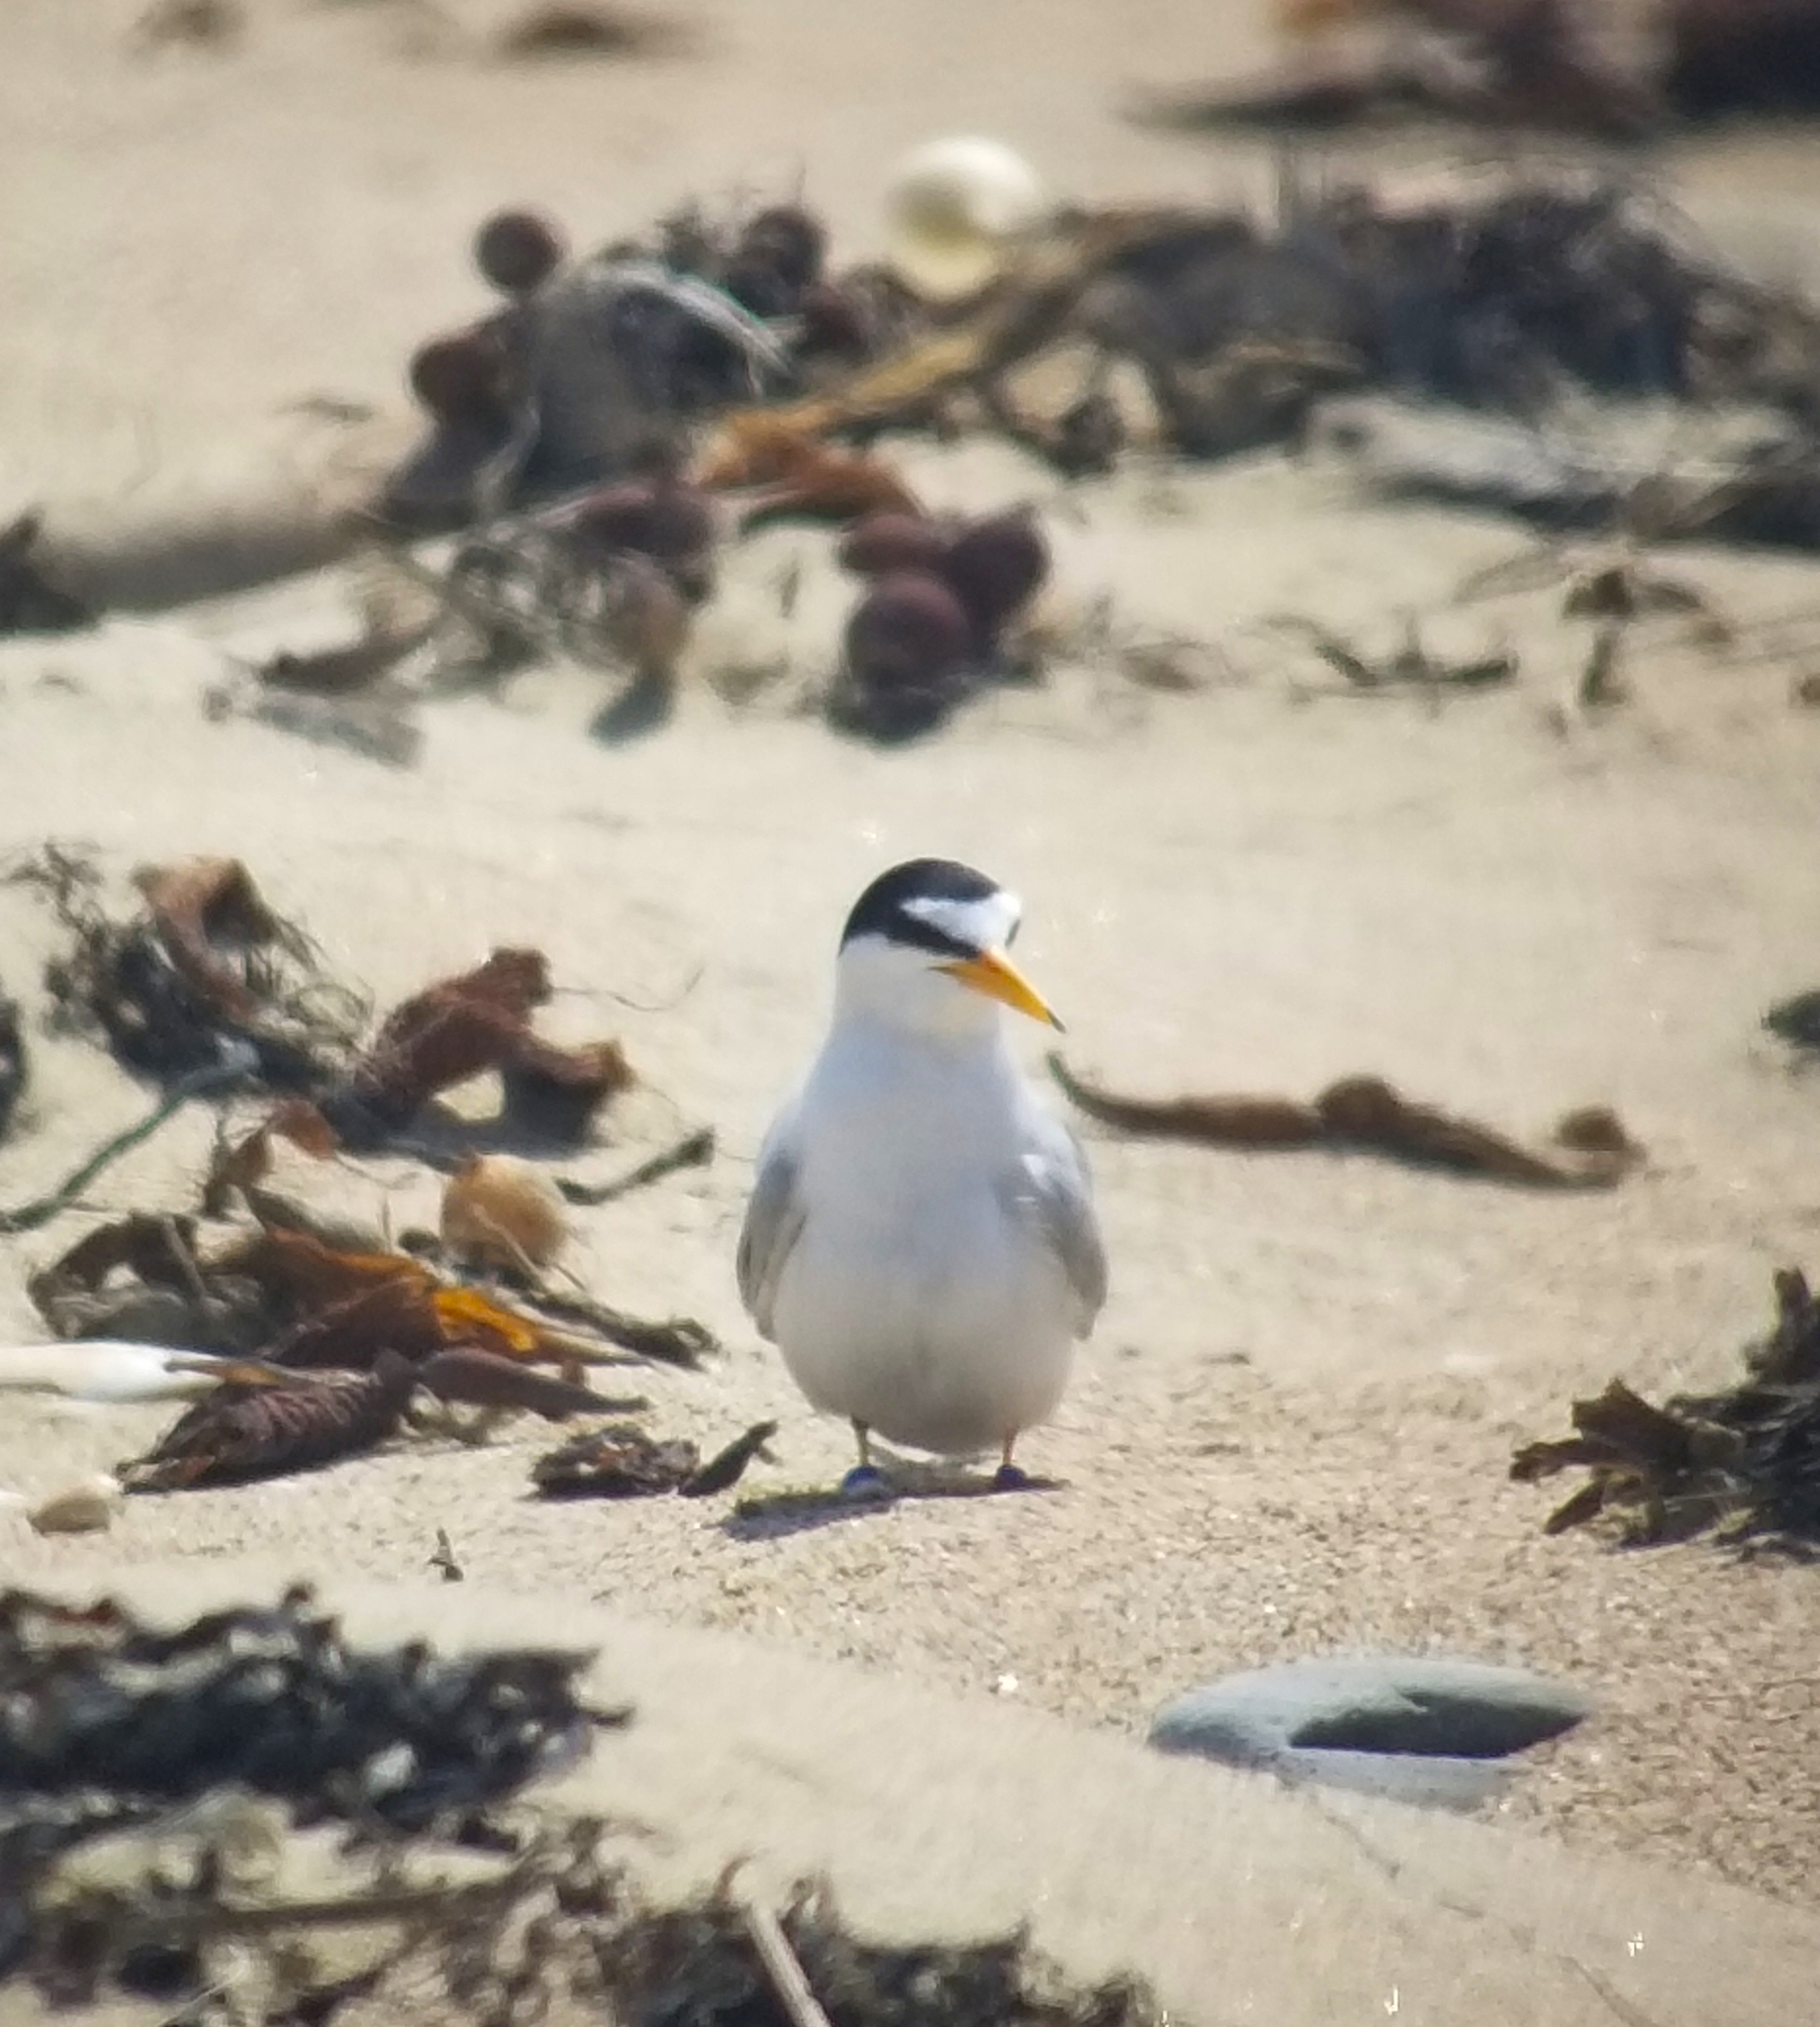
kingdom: Animalia
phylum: Chordata
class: Aves
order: Charadriiformes
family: Laridae
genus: Sternula
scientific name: Sternula antillarum
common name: Least tern
